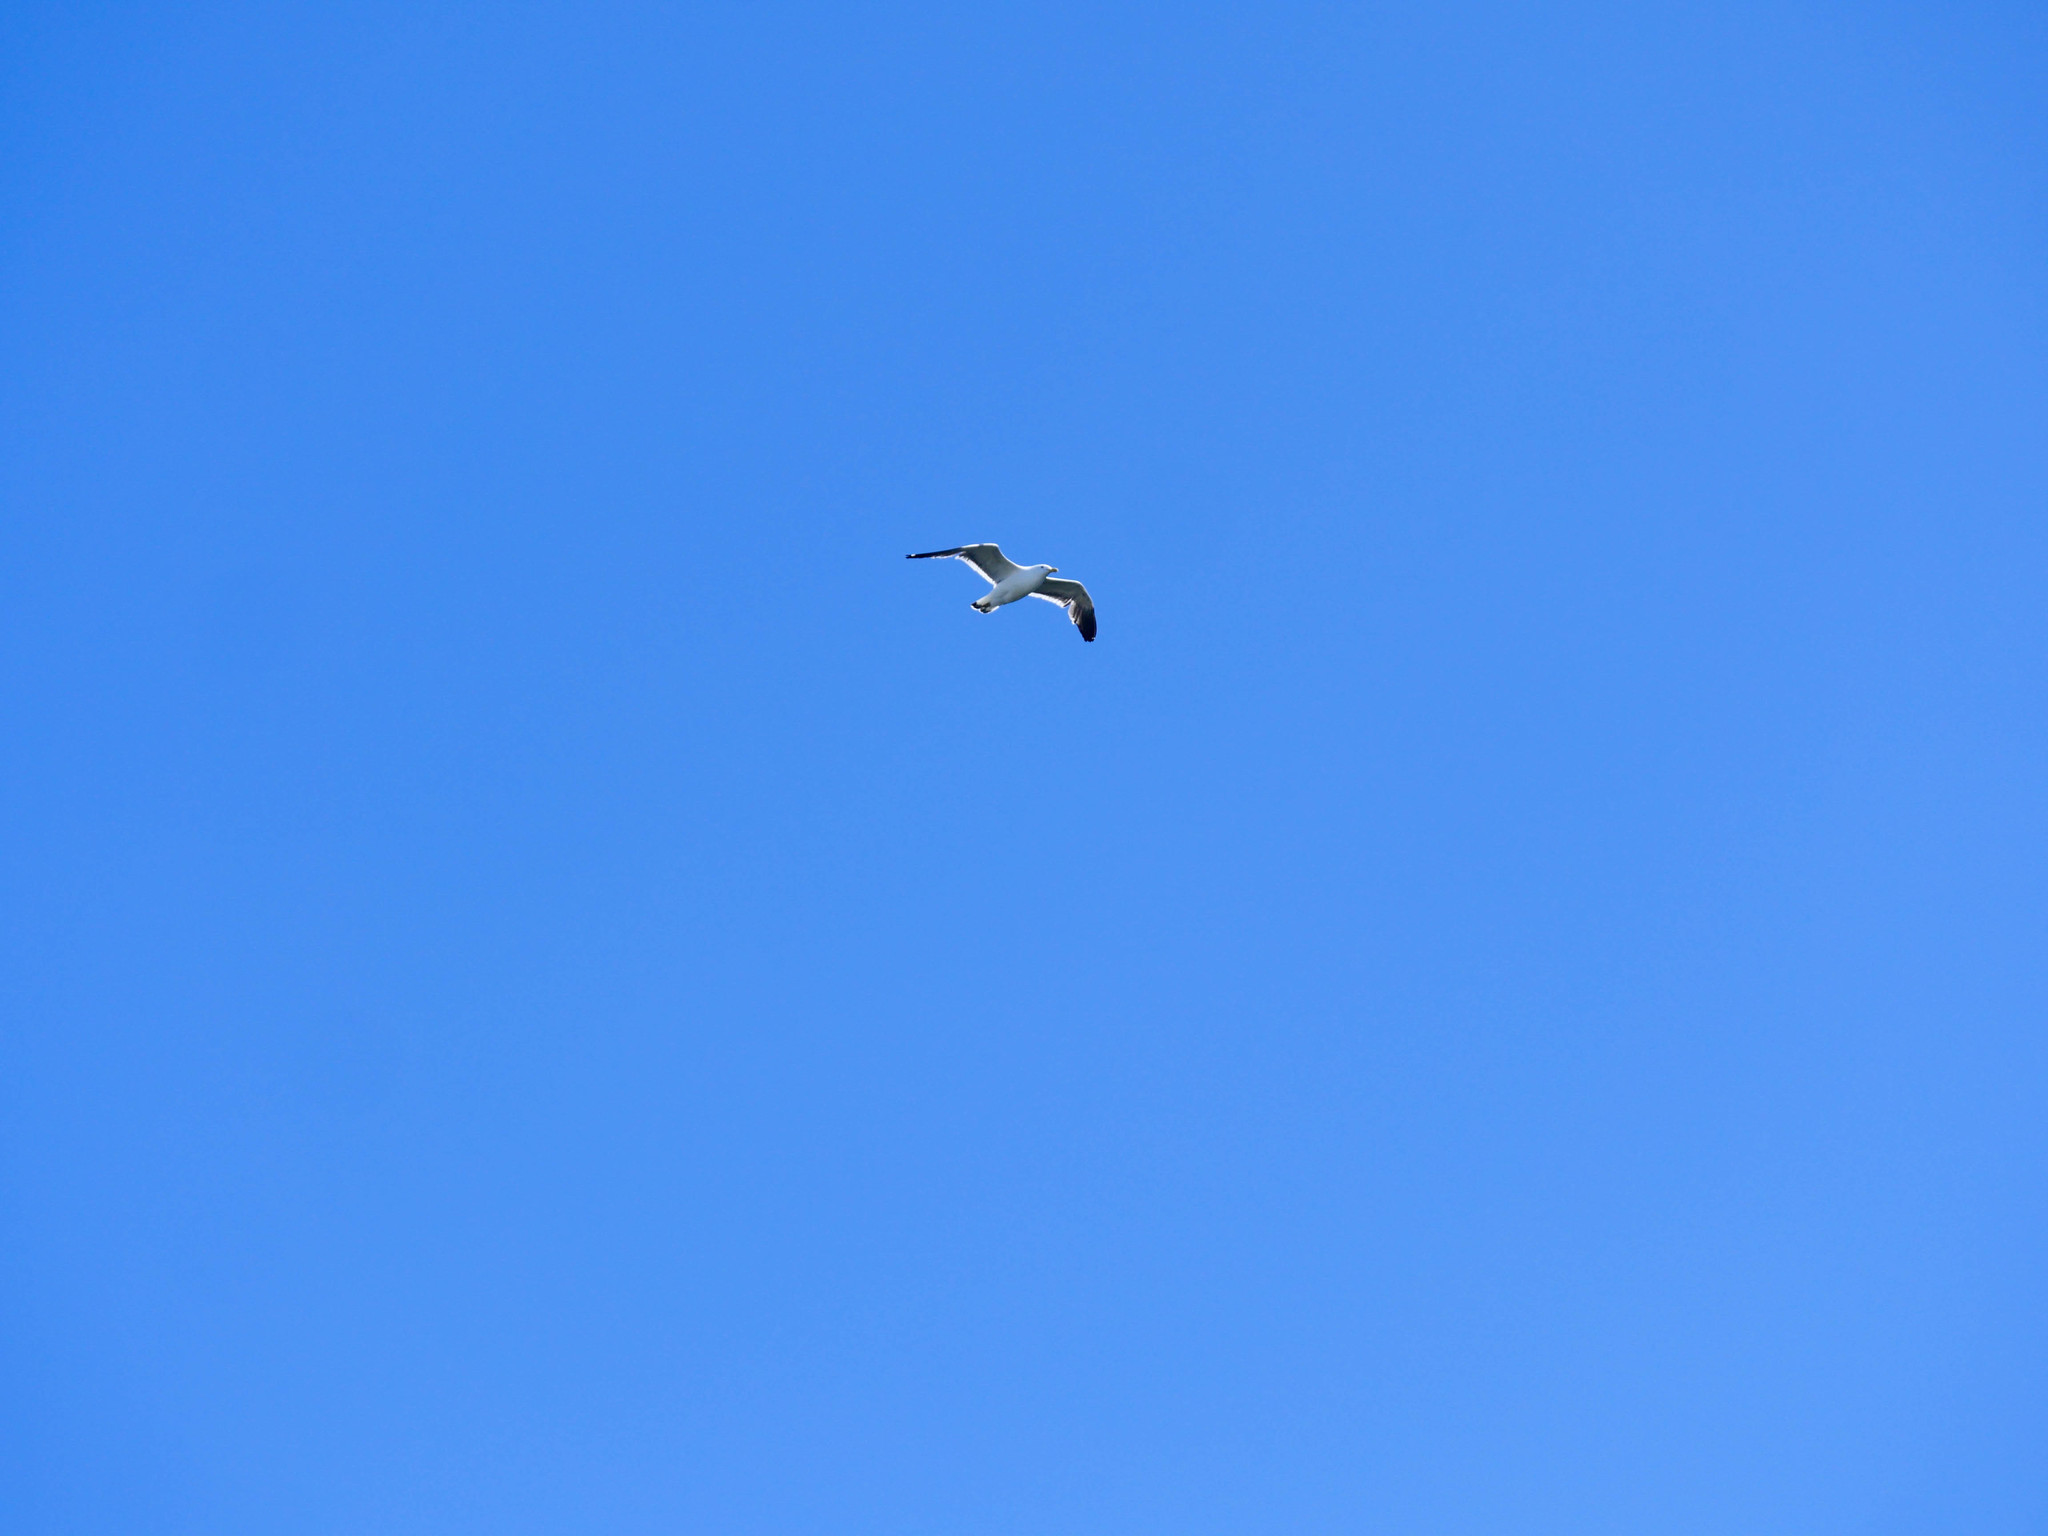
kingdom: Animalia
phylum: Chordata
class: Aves
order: Charadriiformes
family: Laridae
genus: Larus
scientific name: Larus dominicanus
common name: Kelp gull
